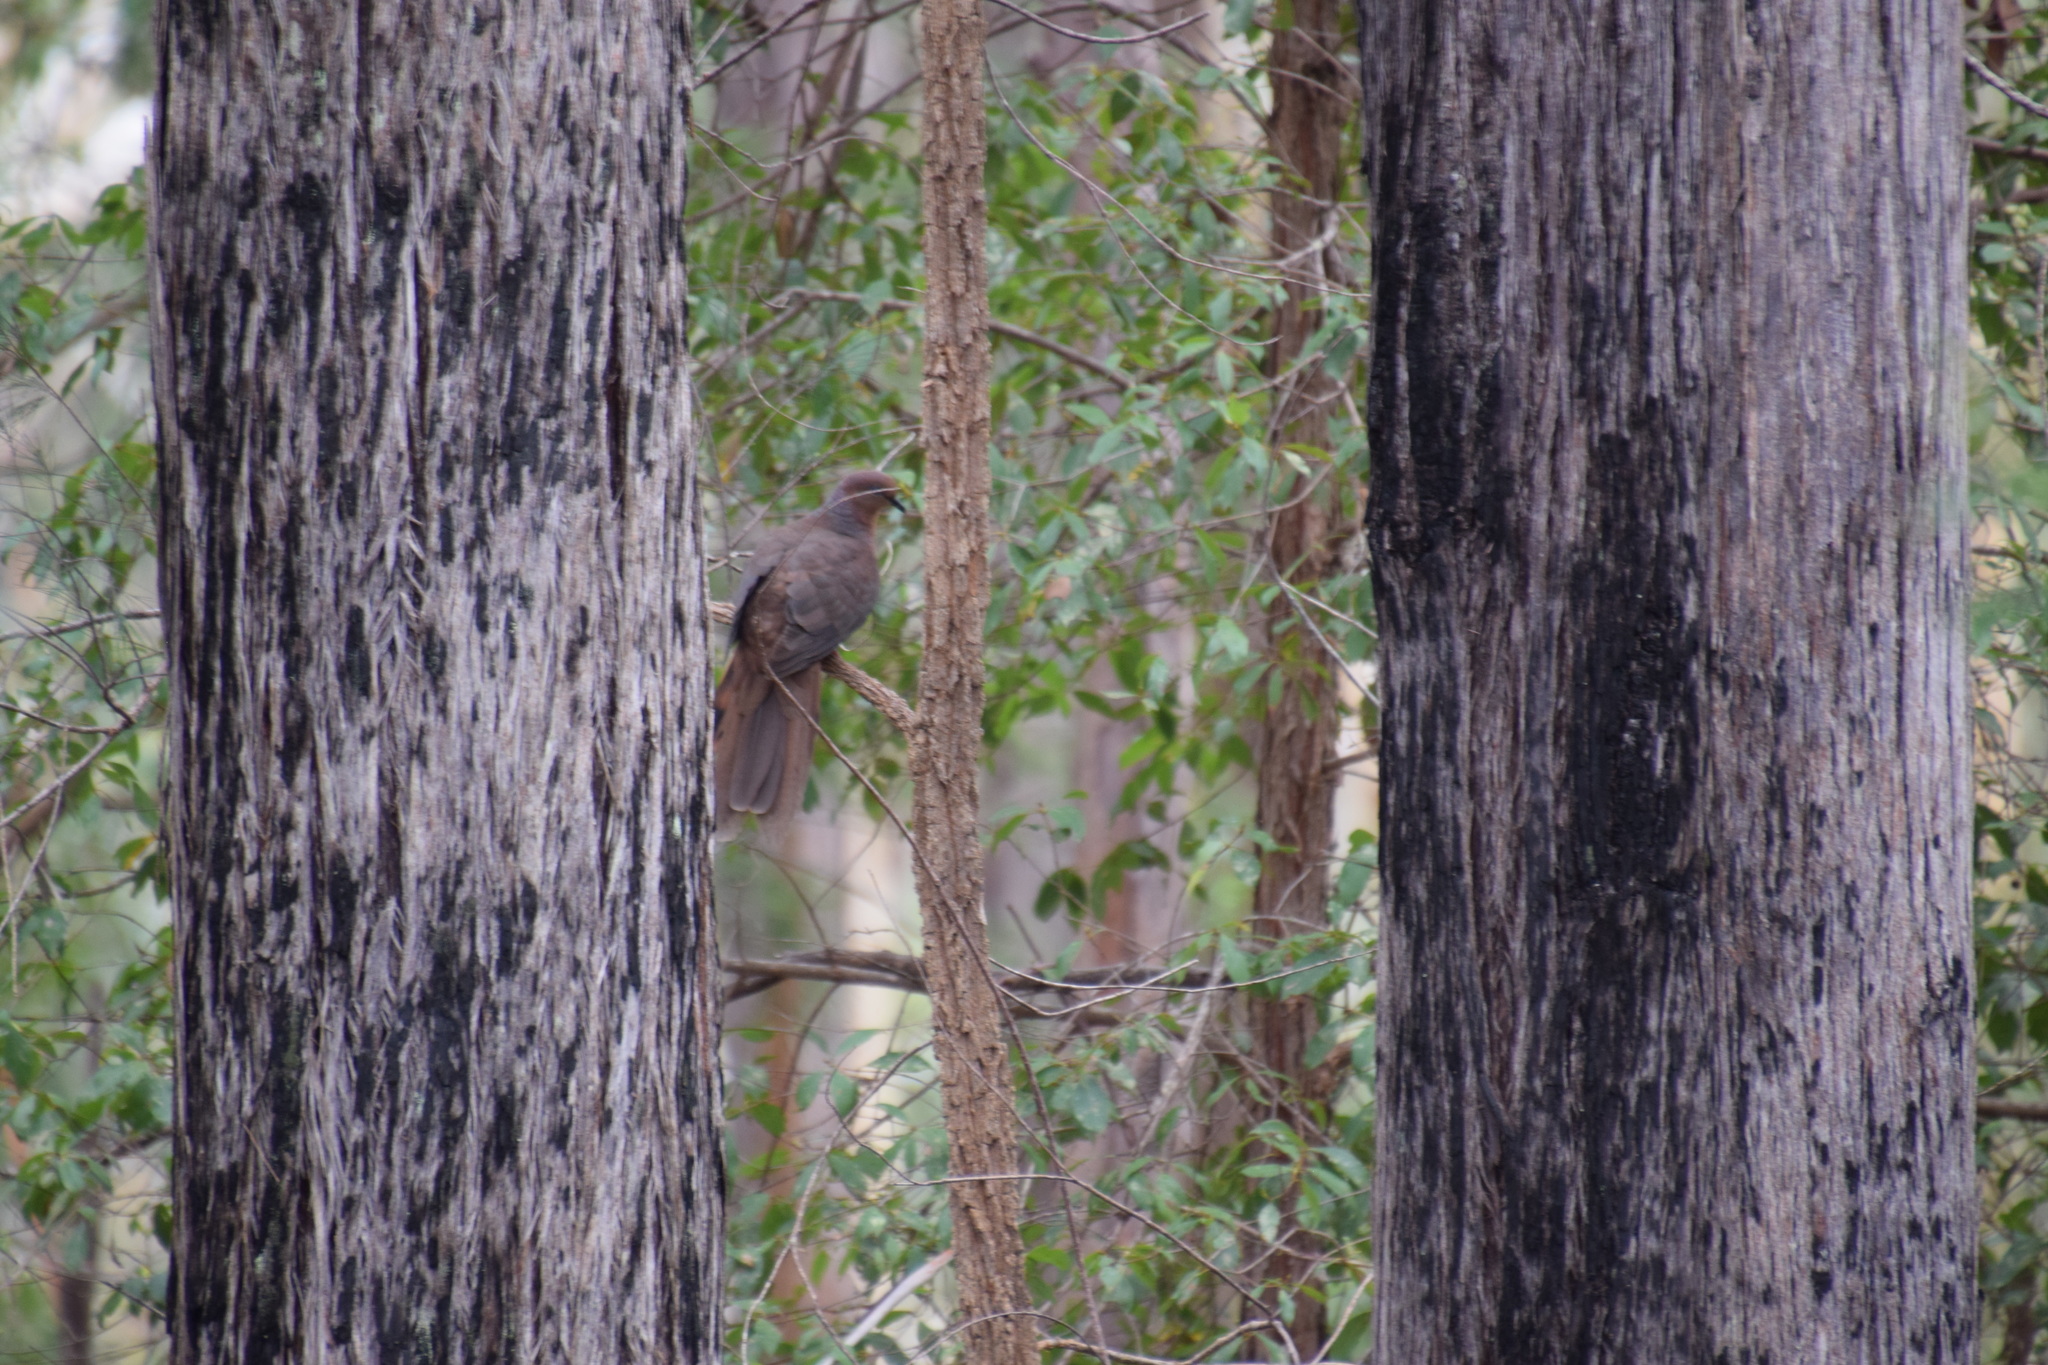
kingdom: Animalia
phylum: Chordata
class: Aves
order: Columbiformes
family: Columbidae
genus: Macropygia
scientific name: Macropygia phasianella
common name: Brown cuckoo-dove
